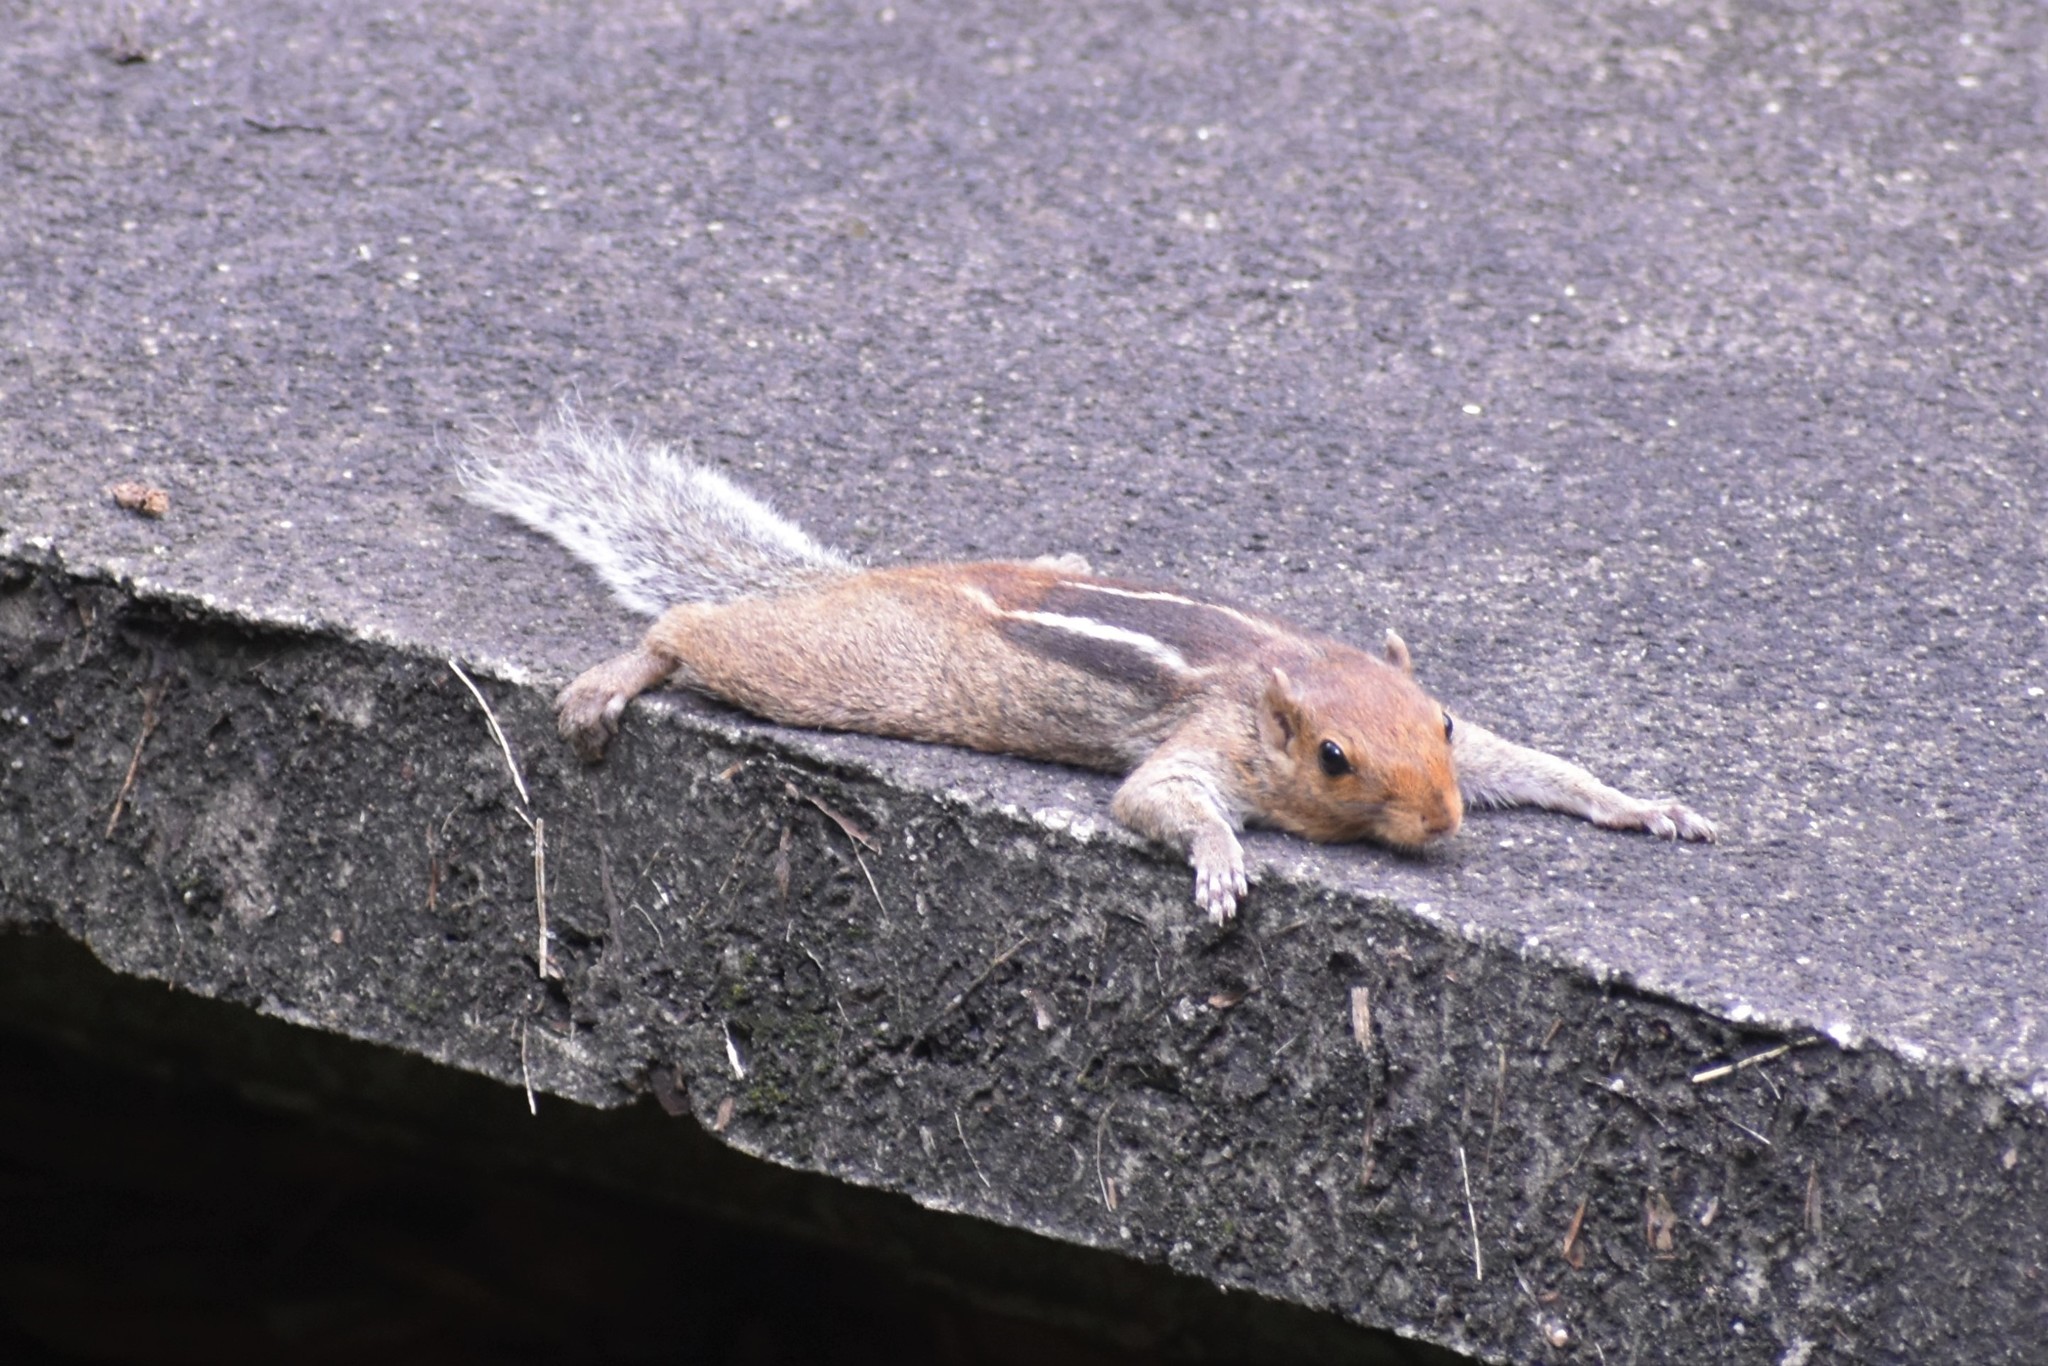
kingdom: Animalia
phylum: Chordata
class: Mammalia
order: Rodentia
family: Sciuridae
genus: Funambulus
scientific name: Funambulus tristriatus
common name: Jungle palm squirrel
